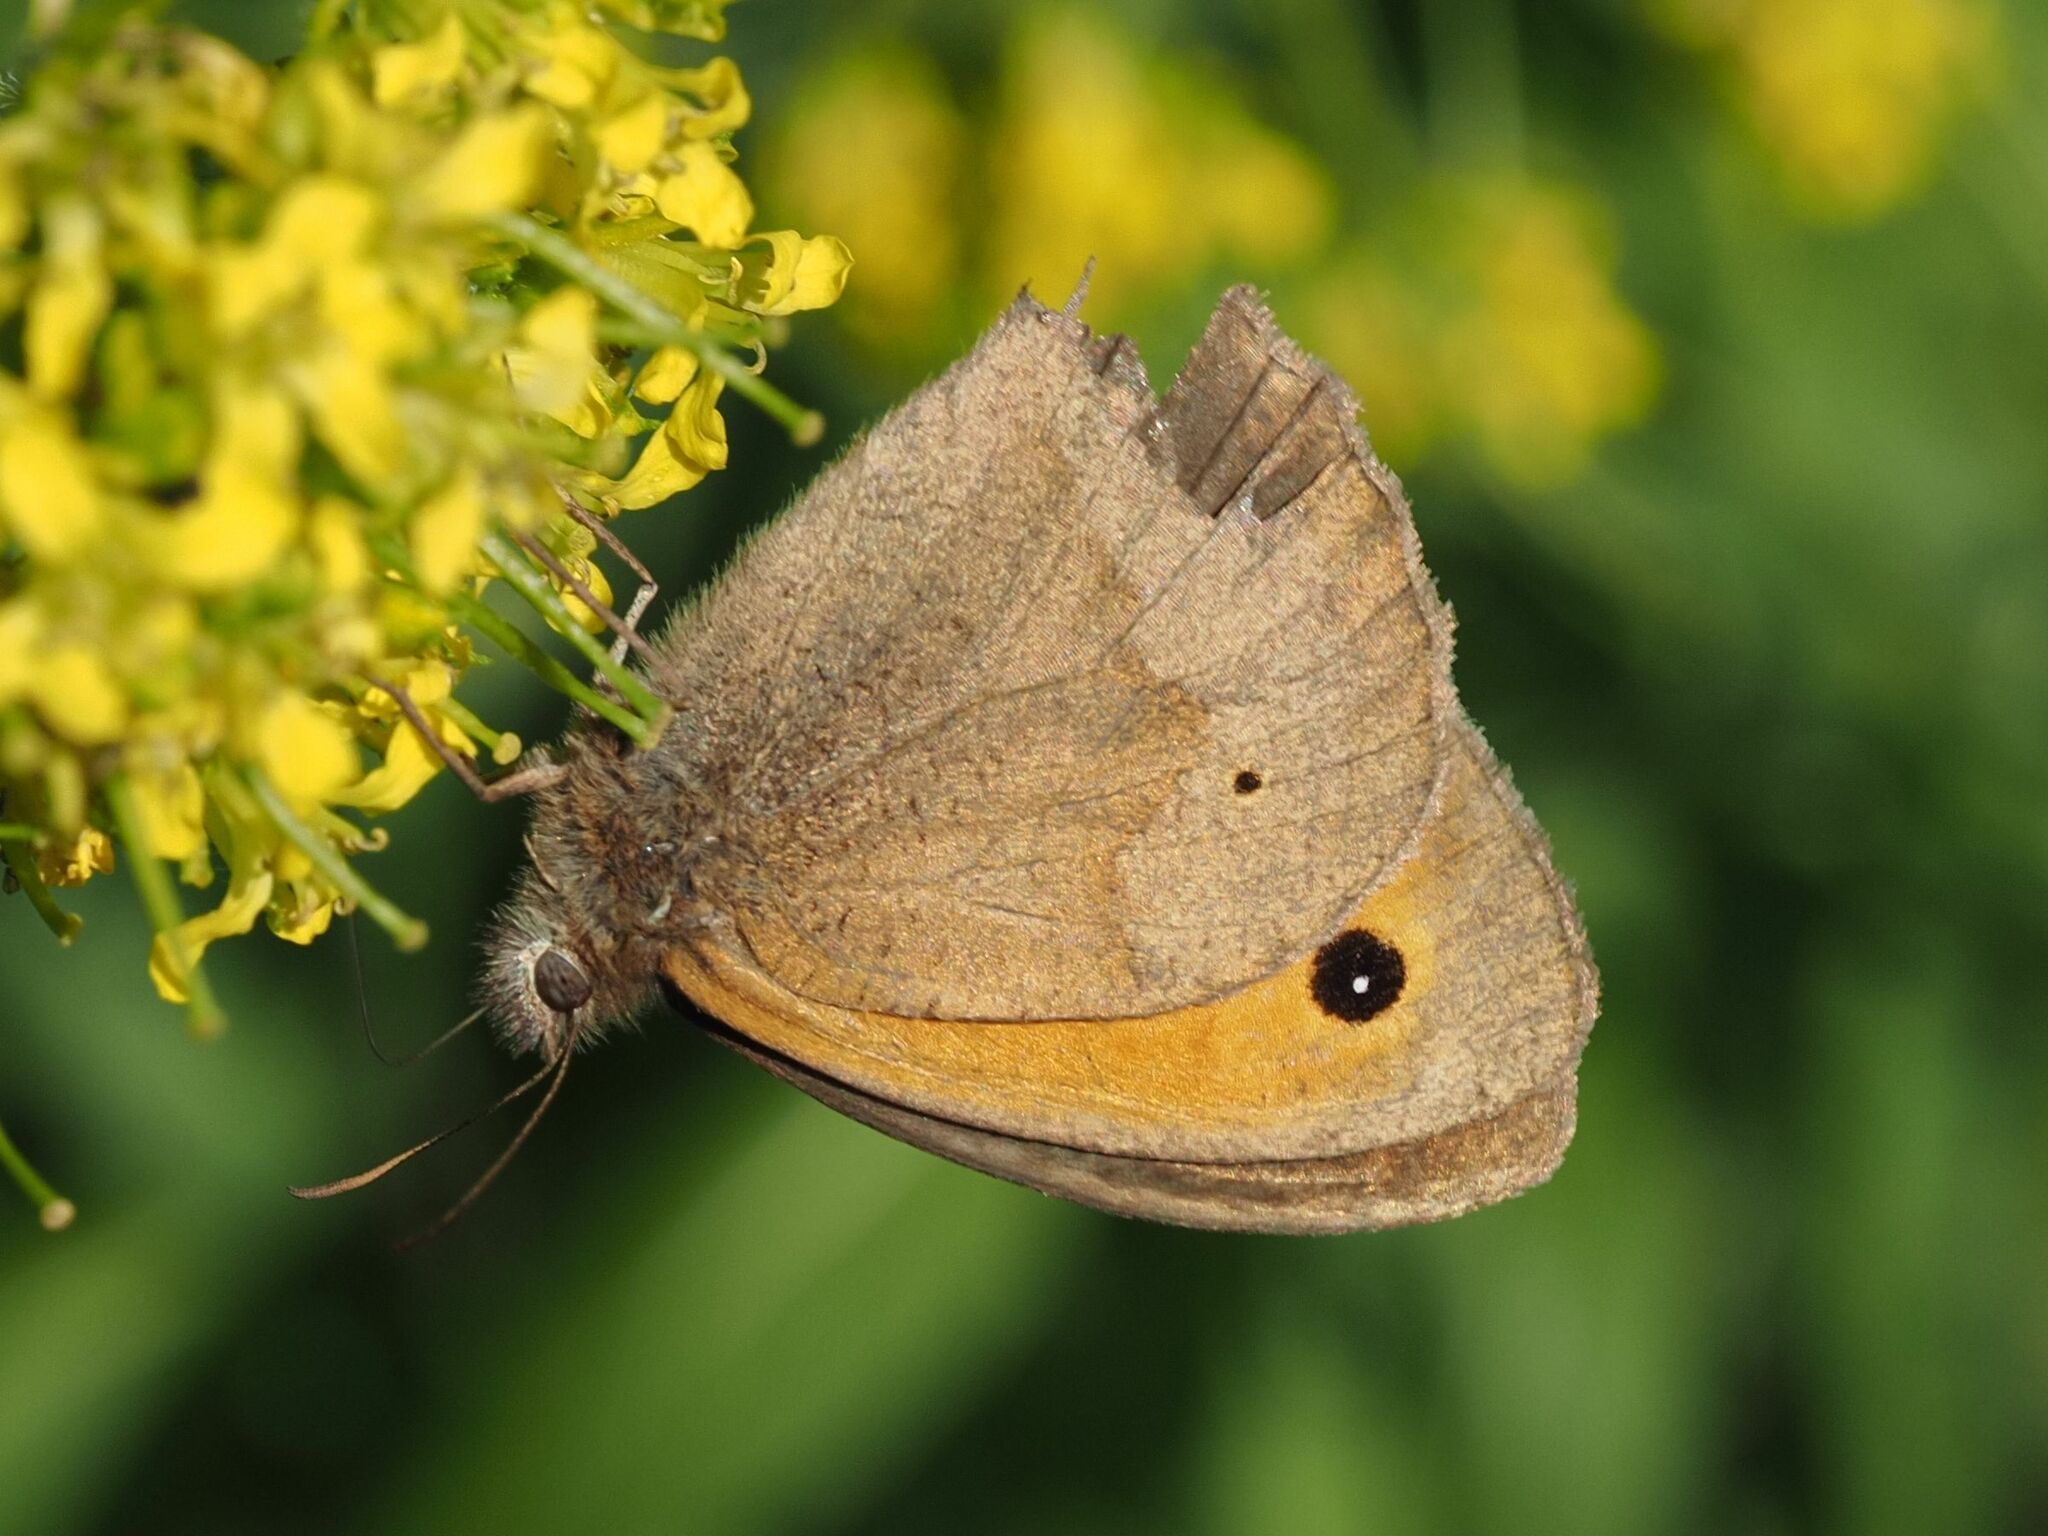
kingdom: Animalia
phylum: Arthropoda
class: Insecta
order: Lepidoptera
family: Nymphalidae
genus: Maniola
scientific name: Maniola jurtina
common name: Meadow brown
